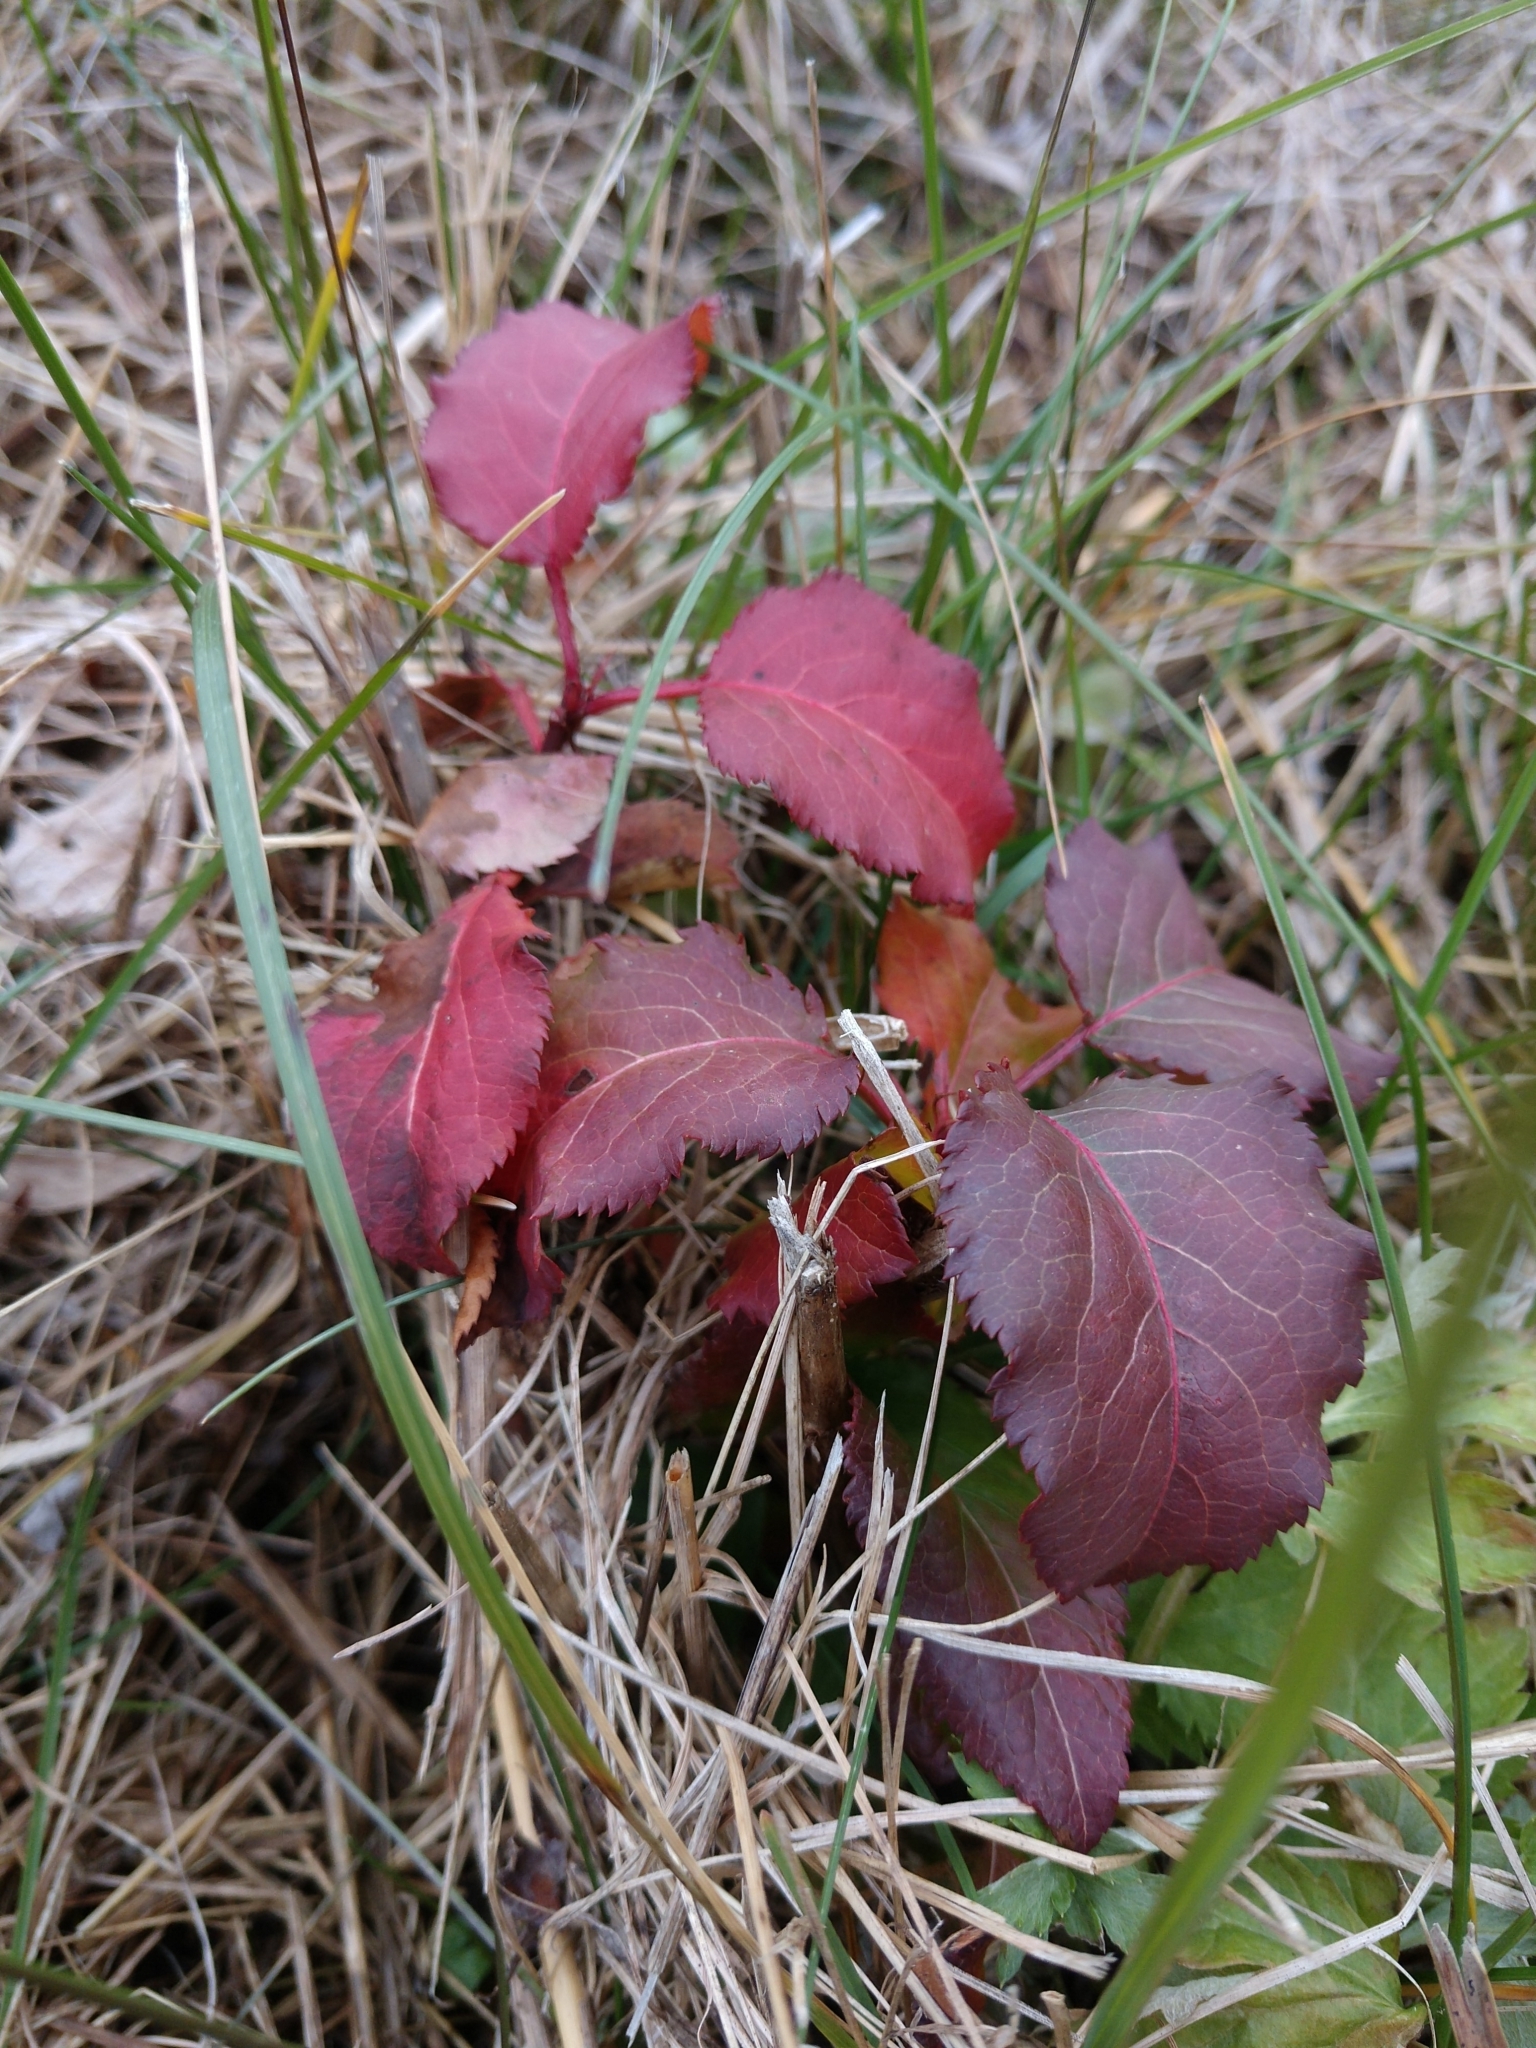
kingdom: Plantae
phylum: Tracheophyta
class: Magnoliopsida
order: Rosales
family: Rosaceae
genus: Pyrus
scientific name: Pyrus calleryana
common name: Callery pear
